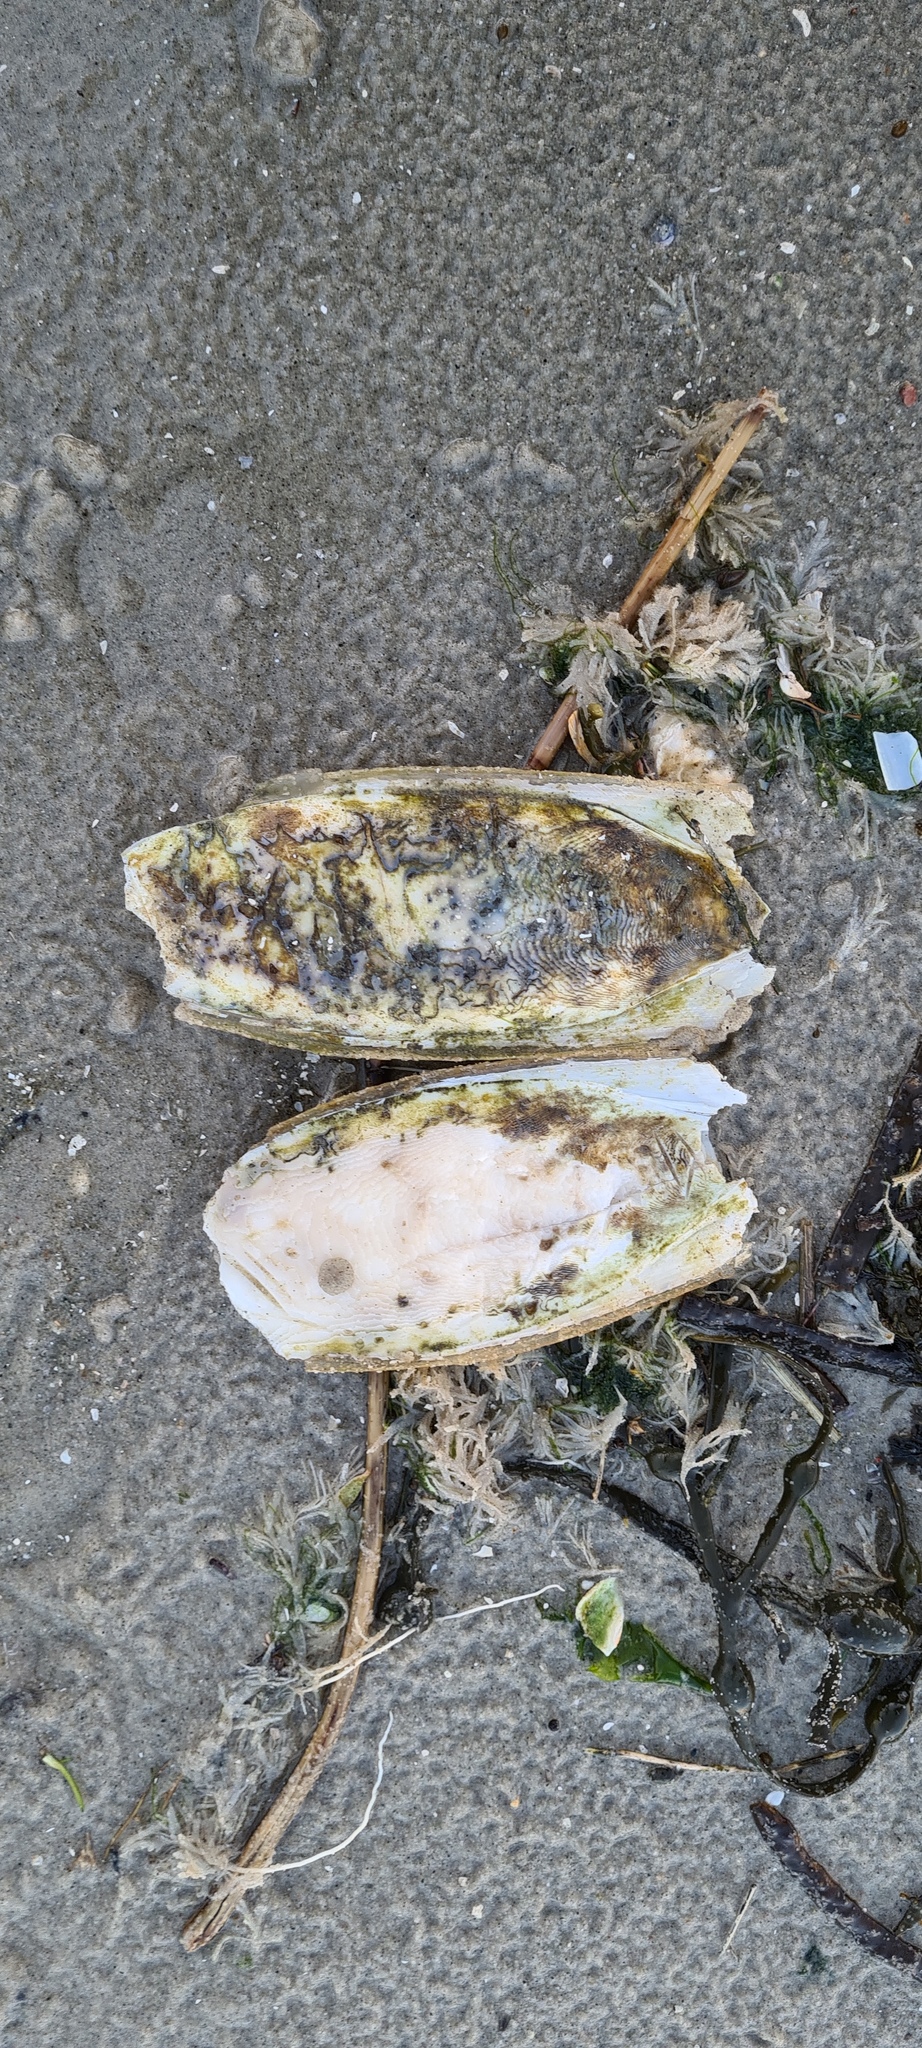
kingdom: Animalia
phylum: Mollusca
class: Cephalopoda
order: Sepiida
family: Sepiidae
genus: Sepia
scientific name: Sepia officinalis
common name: Common cuttlefish
